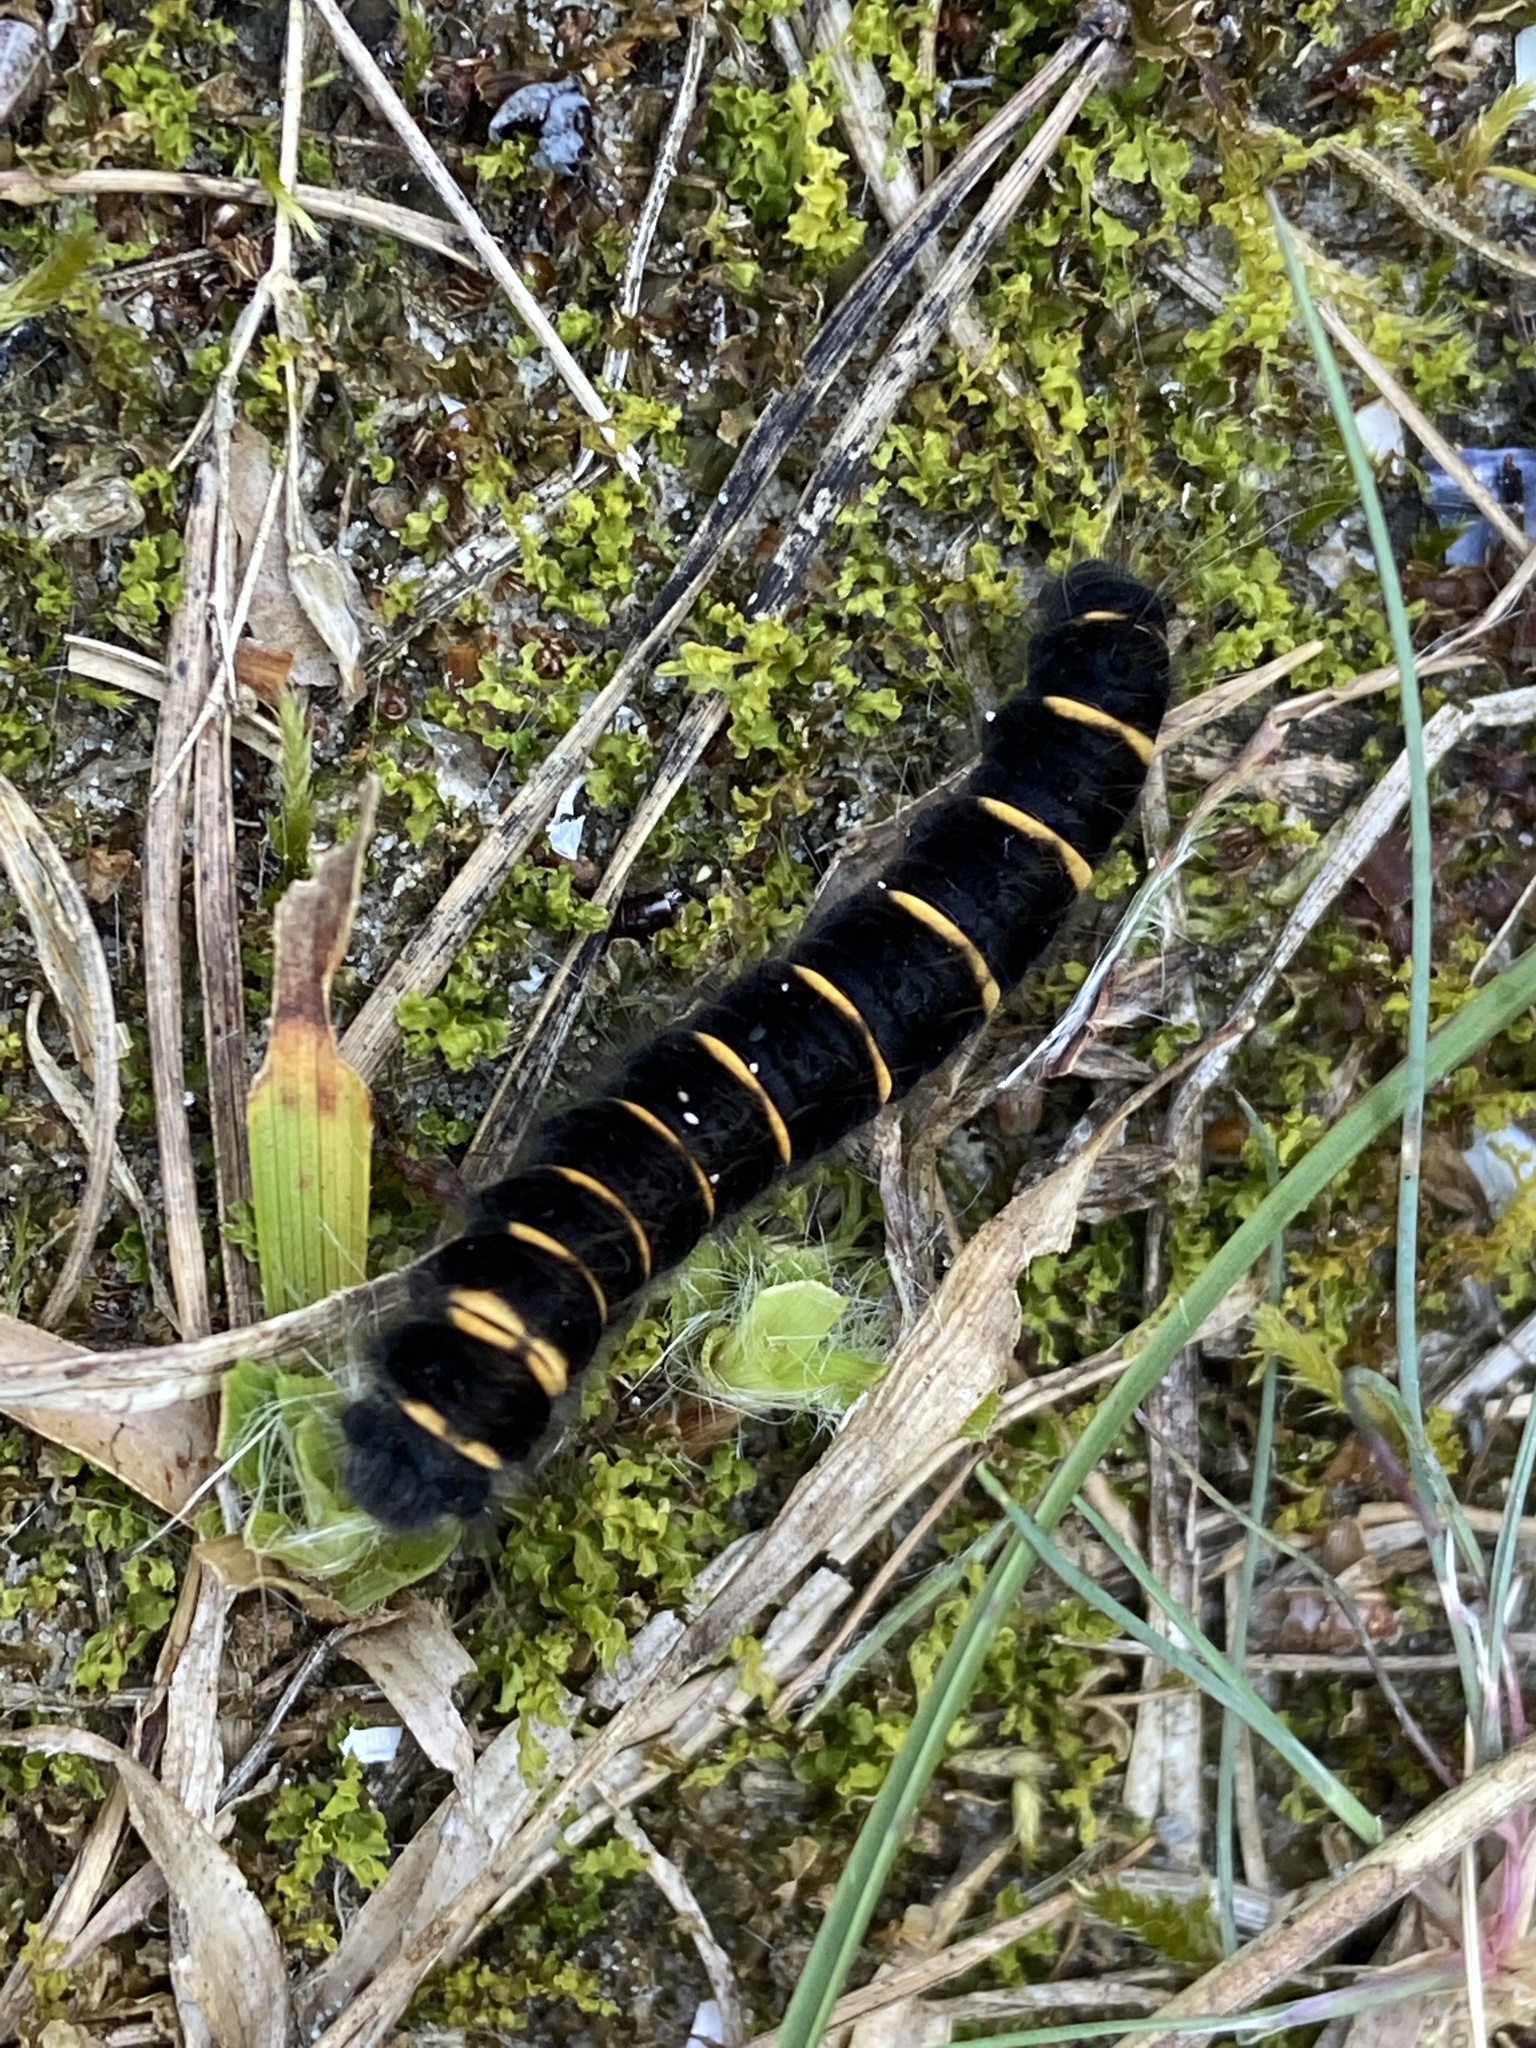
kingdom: Animalia
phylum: Arthropoda
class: Insecta
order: Lepidoptera
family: Lasiocampidae
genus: Macrothylacia
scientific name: Macrothylacia rubi
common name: Fox moth
